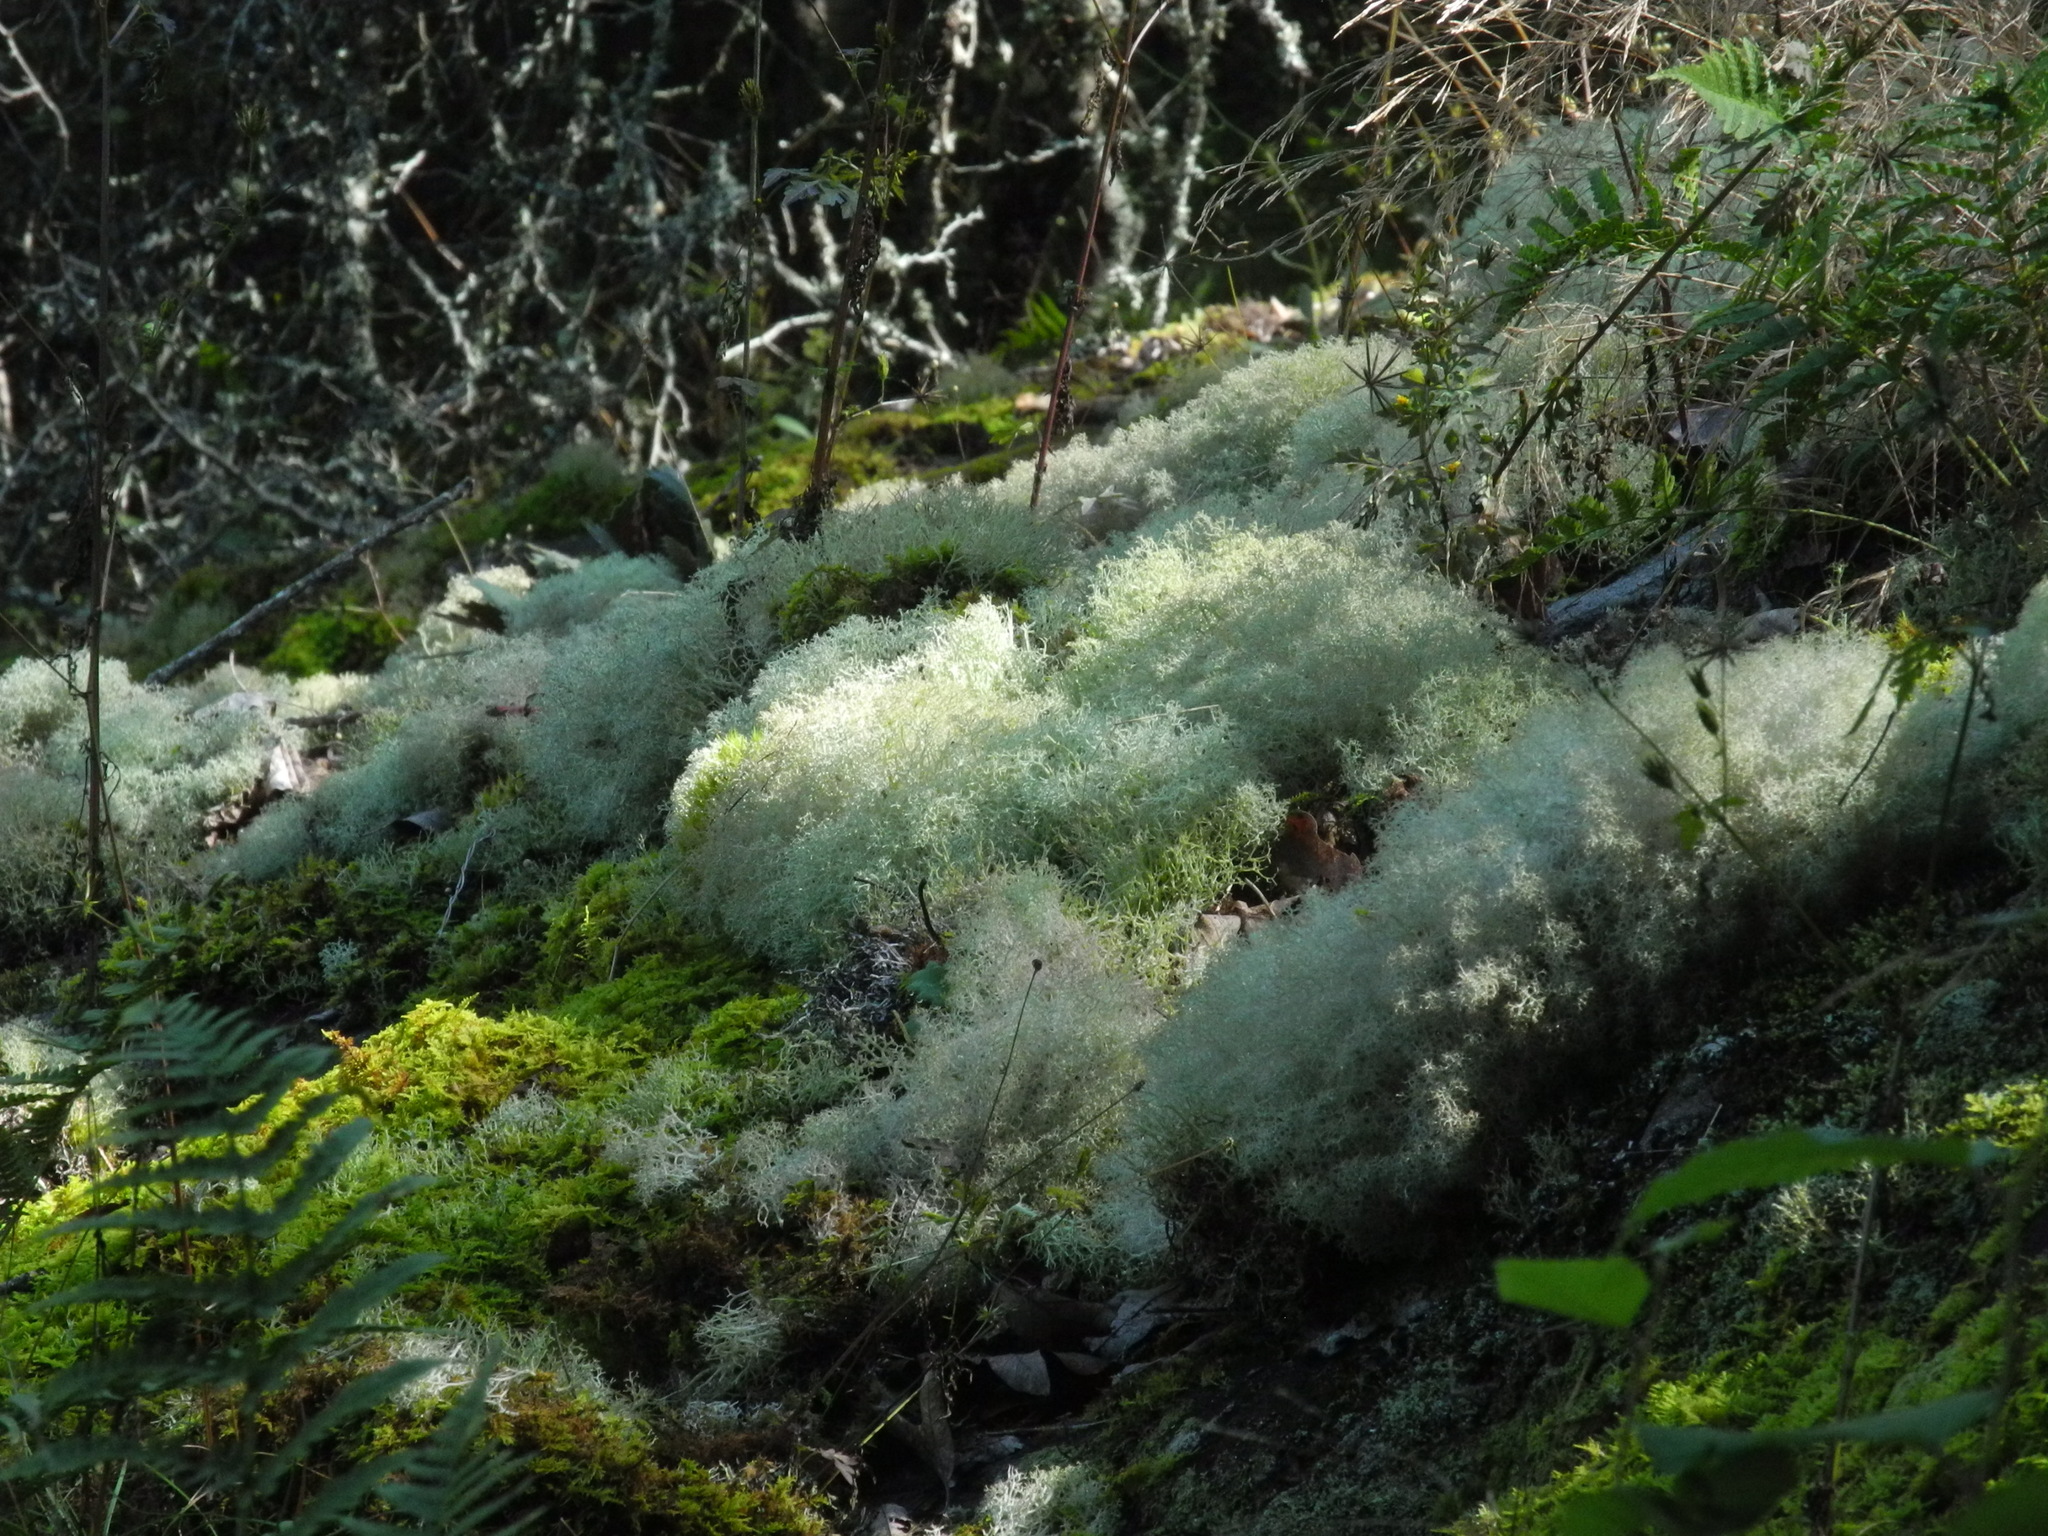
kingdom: Fungi
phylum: Ascomycota
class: Lecanoromycetes
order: Lecanorales
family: Cladoniaceae
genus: Cladonia
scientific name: Cladonia furcata
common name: Many-forked cladonia
